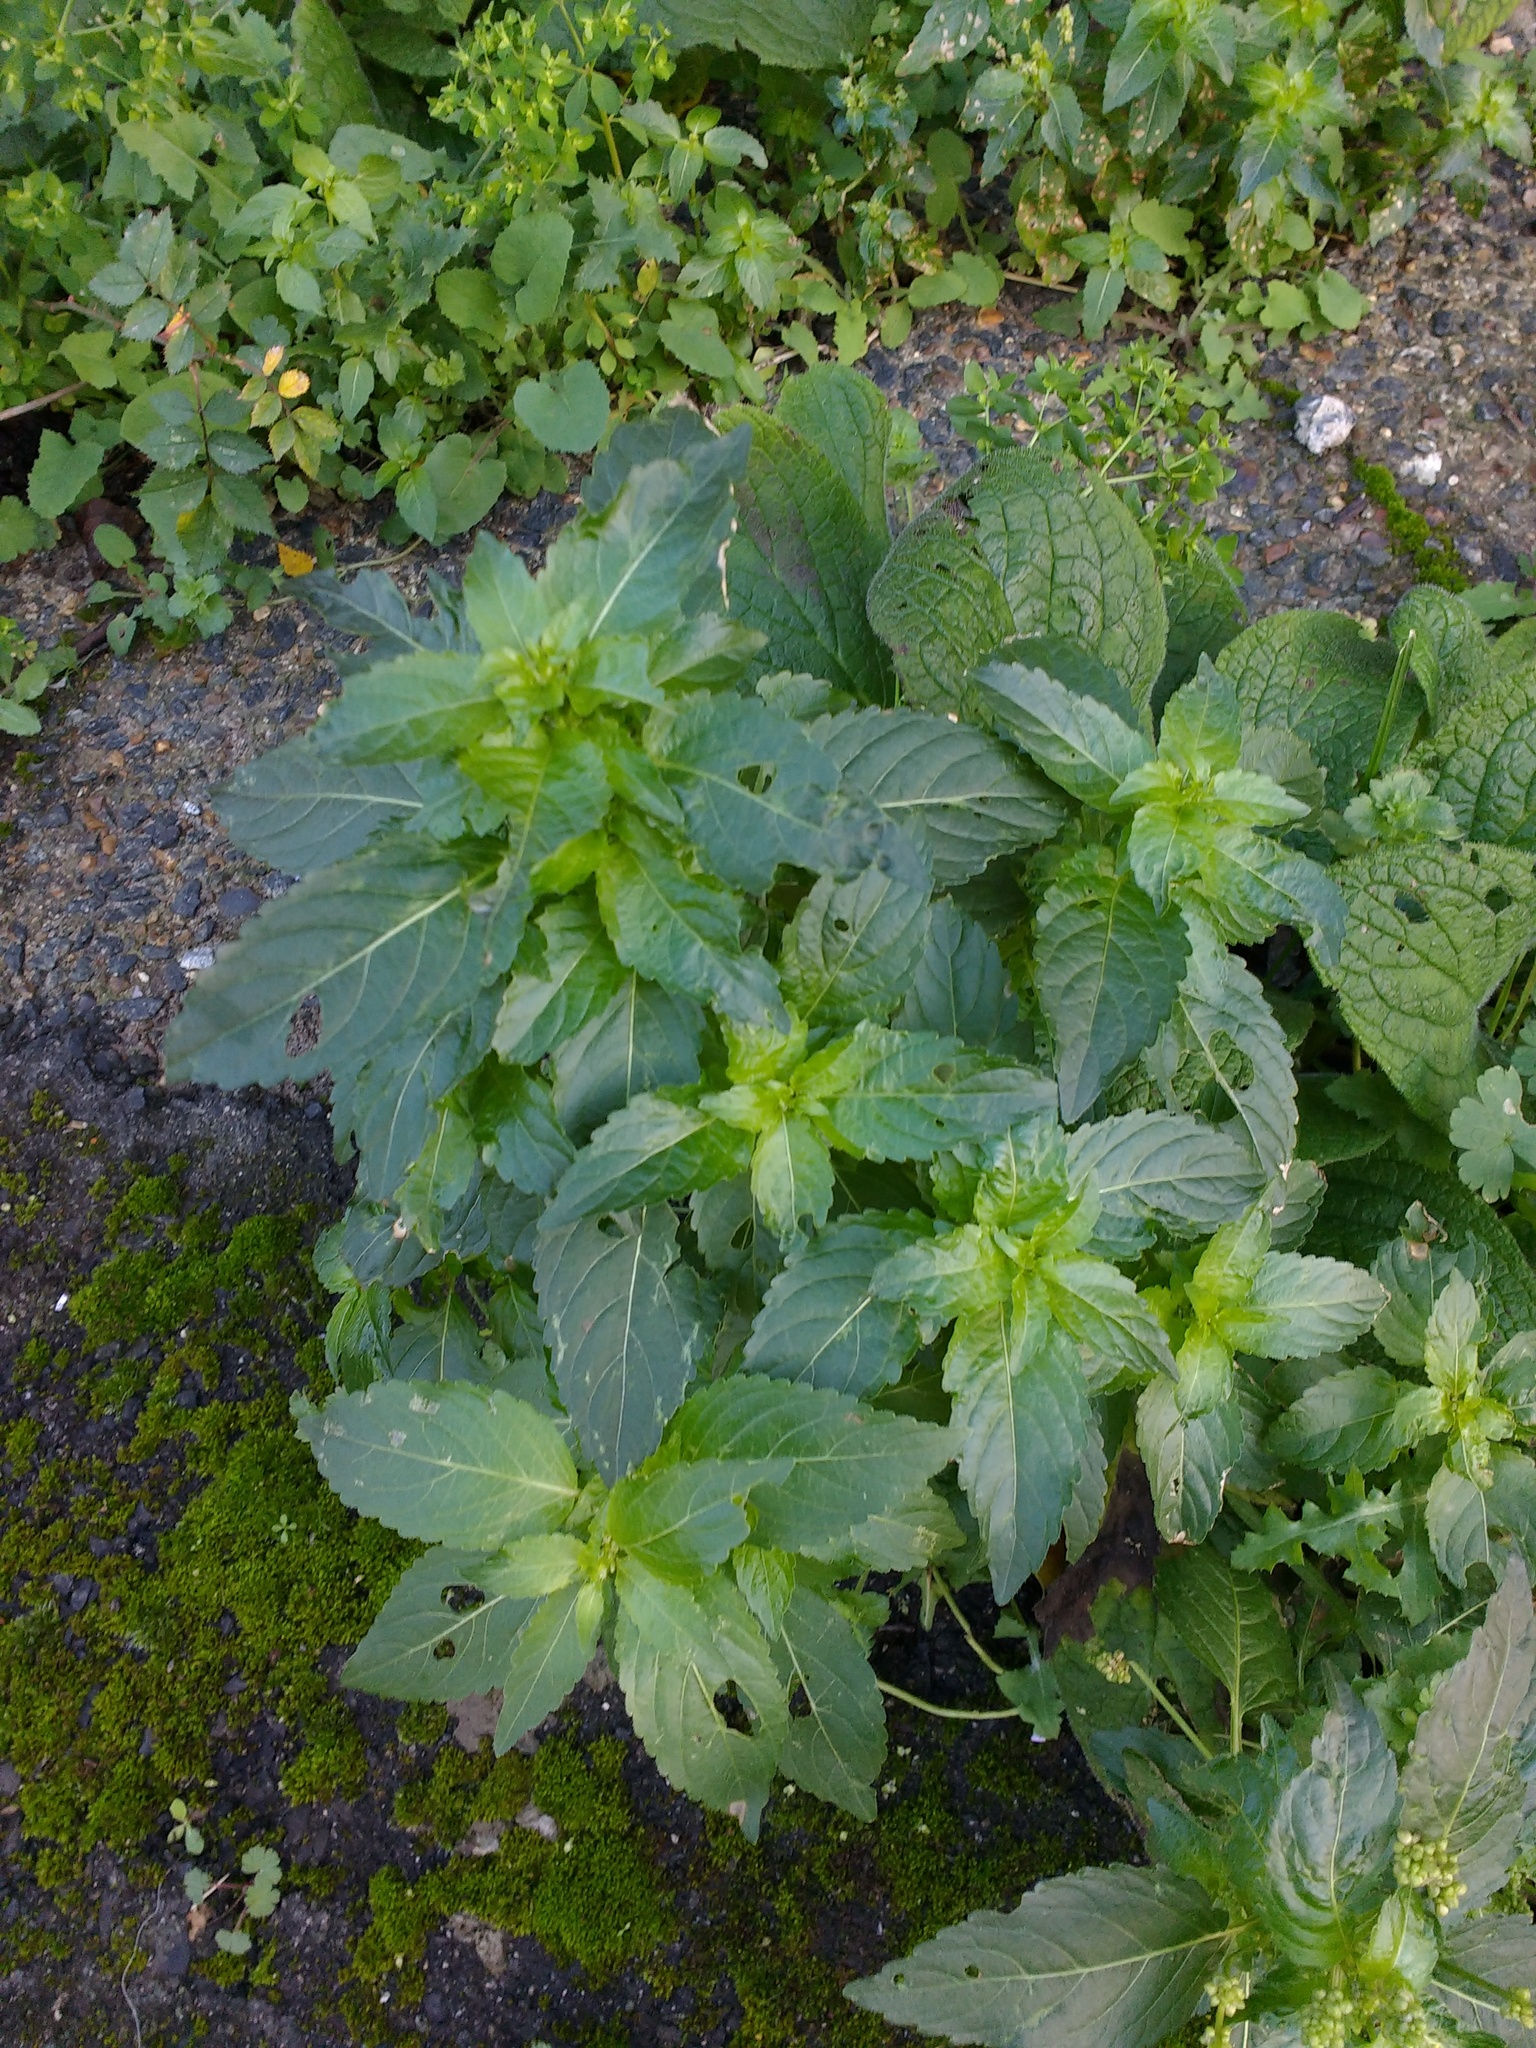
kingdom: Plantae
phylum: Tracheophyta
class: Magnoliopsida
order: Malpighiales
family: Euphorbiaceae
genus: Mercurialis
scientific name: Mercurialis annua
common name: Annual mercury
